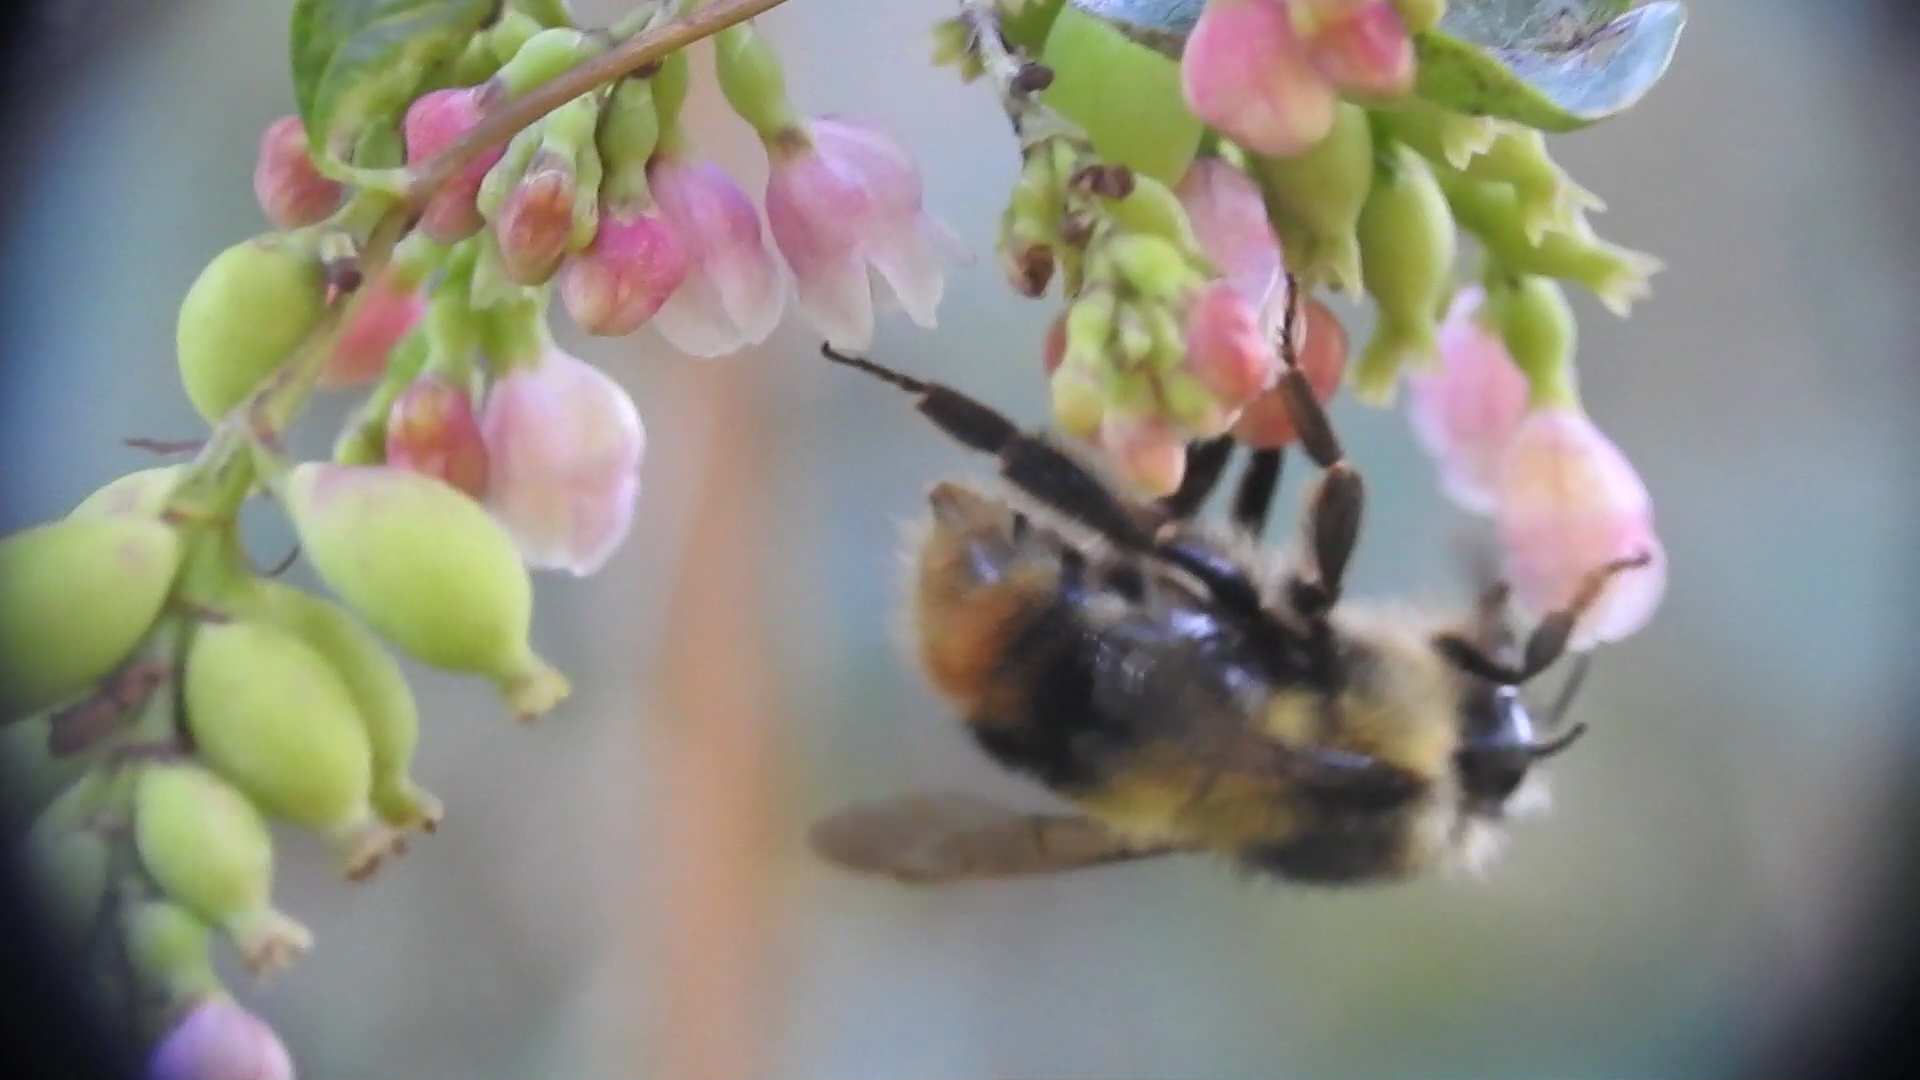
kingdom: Animalia
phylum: Arthropoda
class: Insecta
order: Hymenoptera
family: Apidae
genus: Bombus
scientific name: Bombus mixtus
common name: Fuzzy-horned bumble bee
